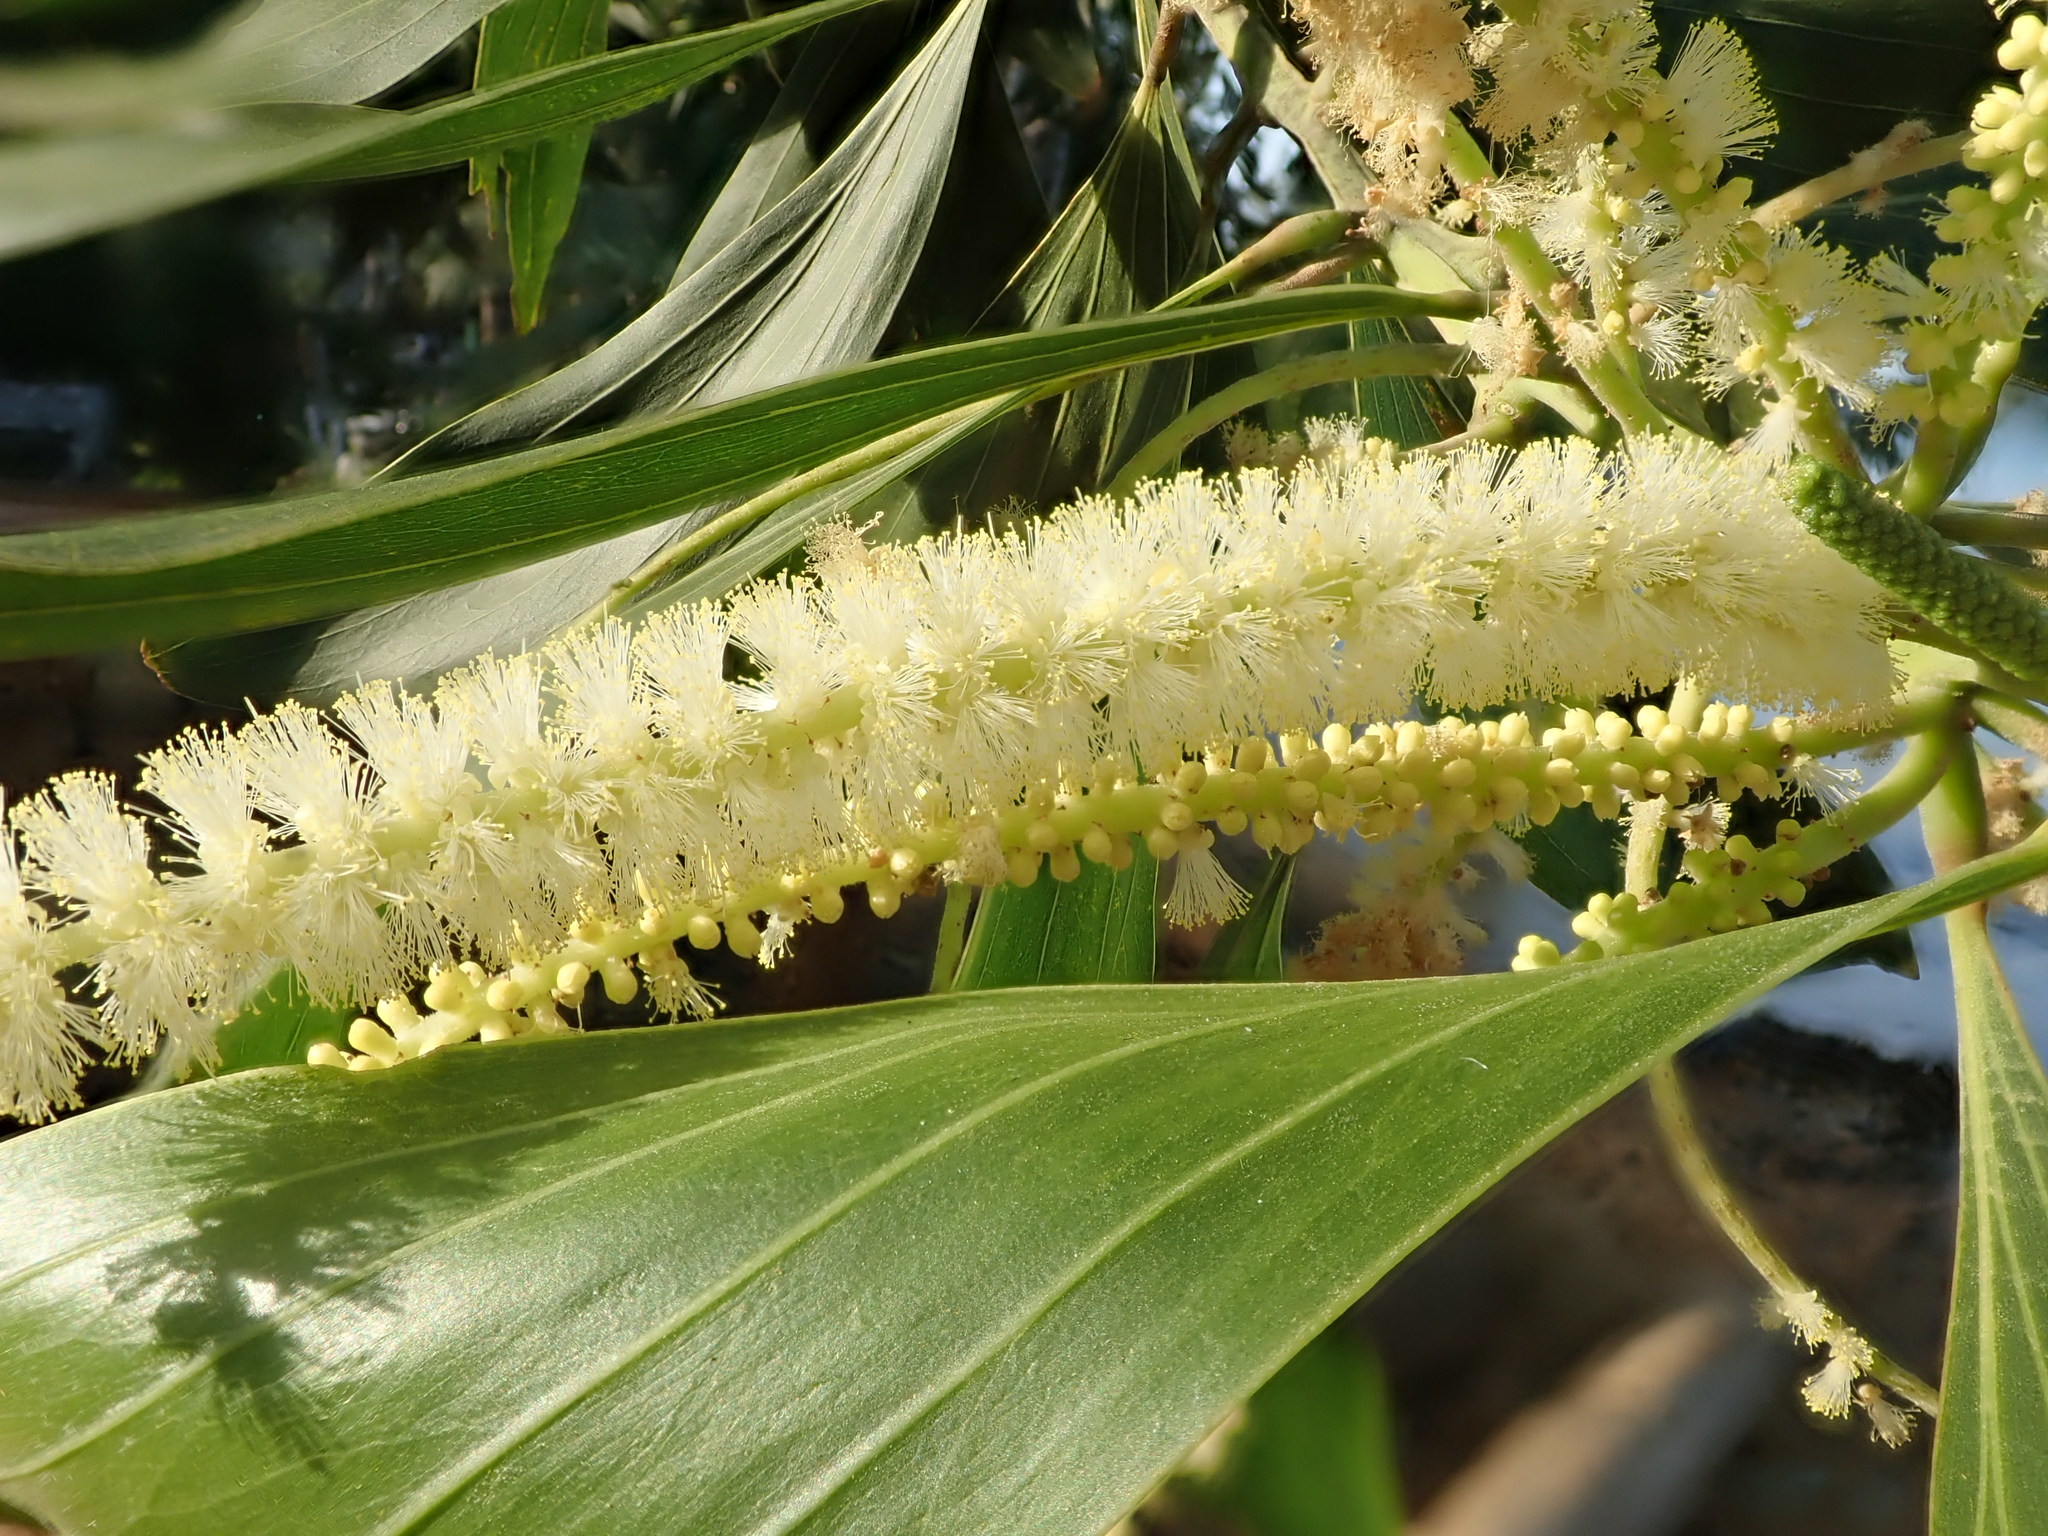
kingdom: Plantae
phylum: Tracheophyta
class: Magnoliopsida
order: Fabales
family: Fabaceae
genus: Acacia
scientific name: Acacia mangium
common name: Black wattle
